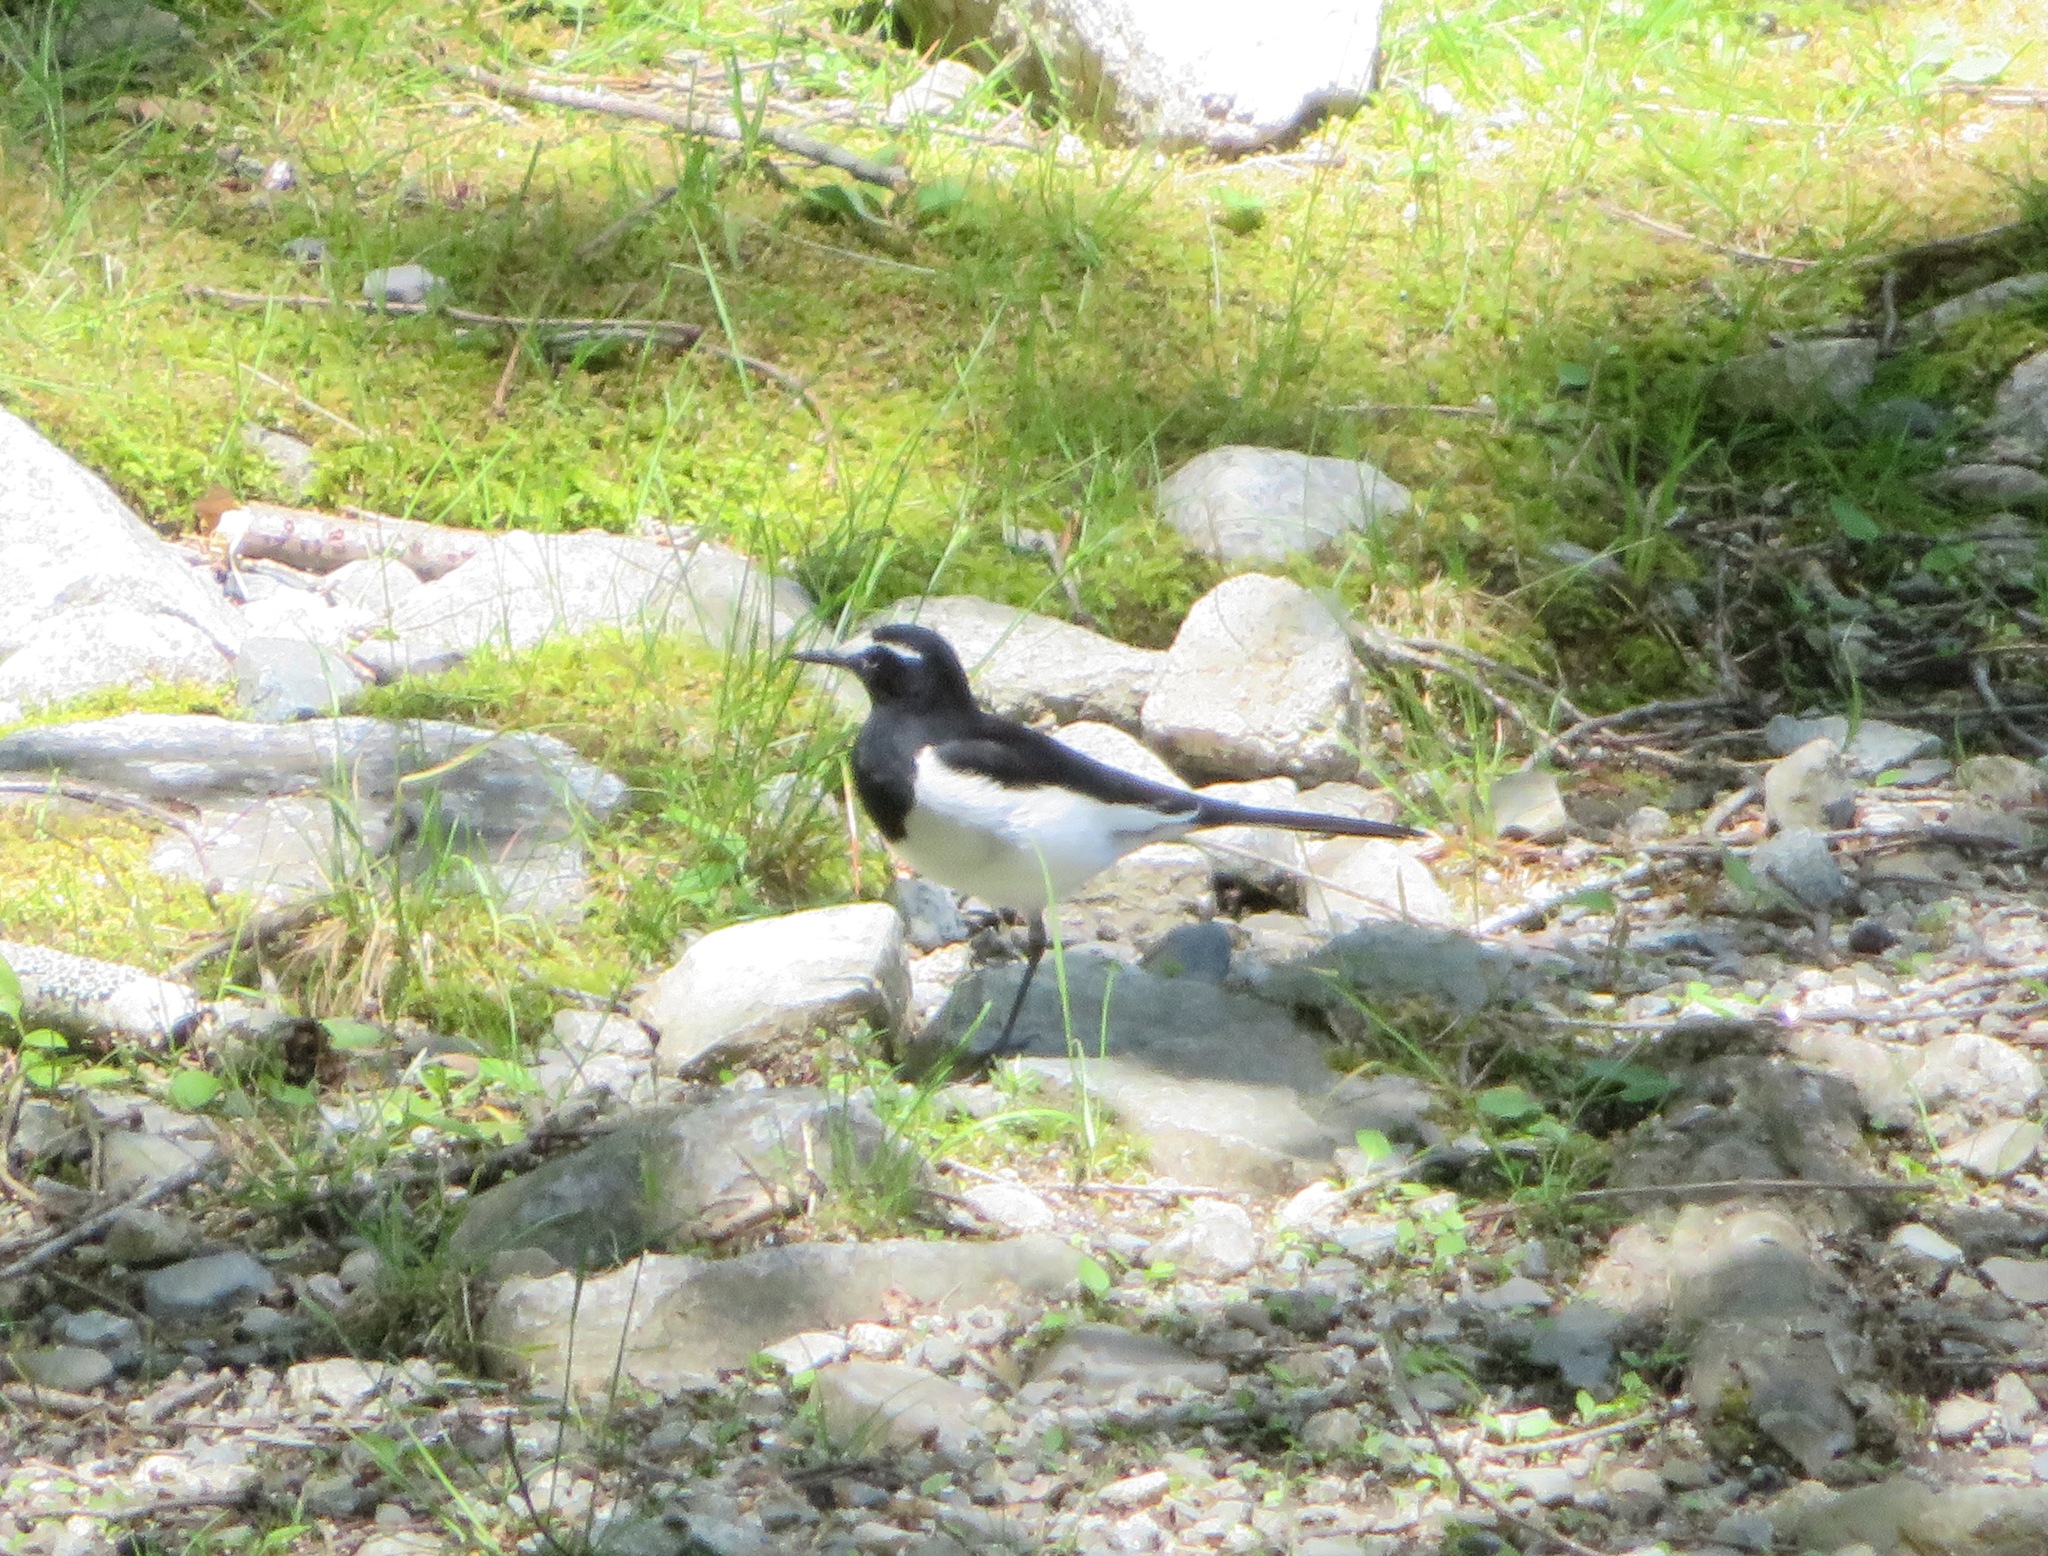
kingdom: Animalia
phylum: Chordata
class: Aves
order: Passeriformes
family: Motacillidae
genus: Motacilla
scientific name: Motacilla grandis
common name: Japanese wagtail
